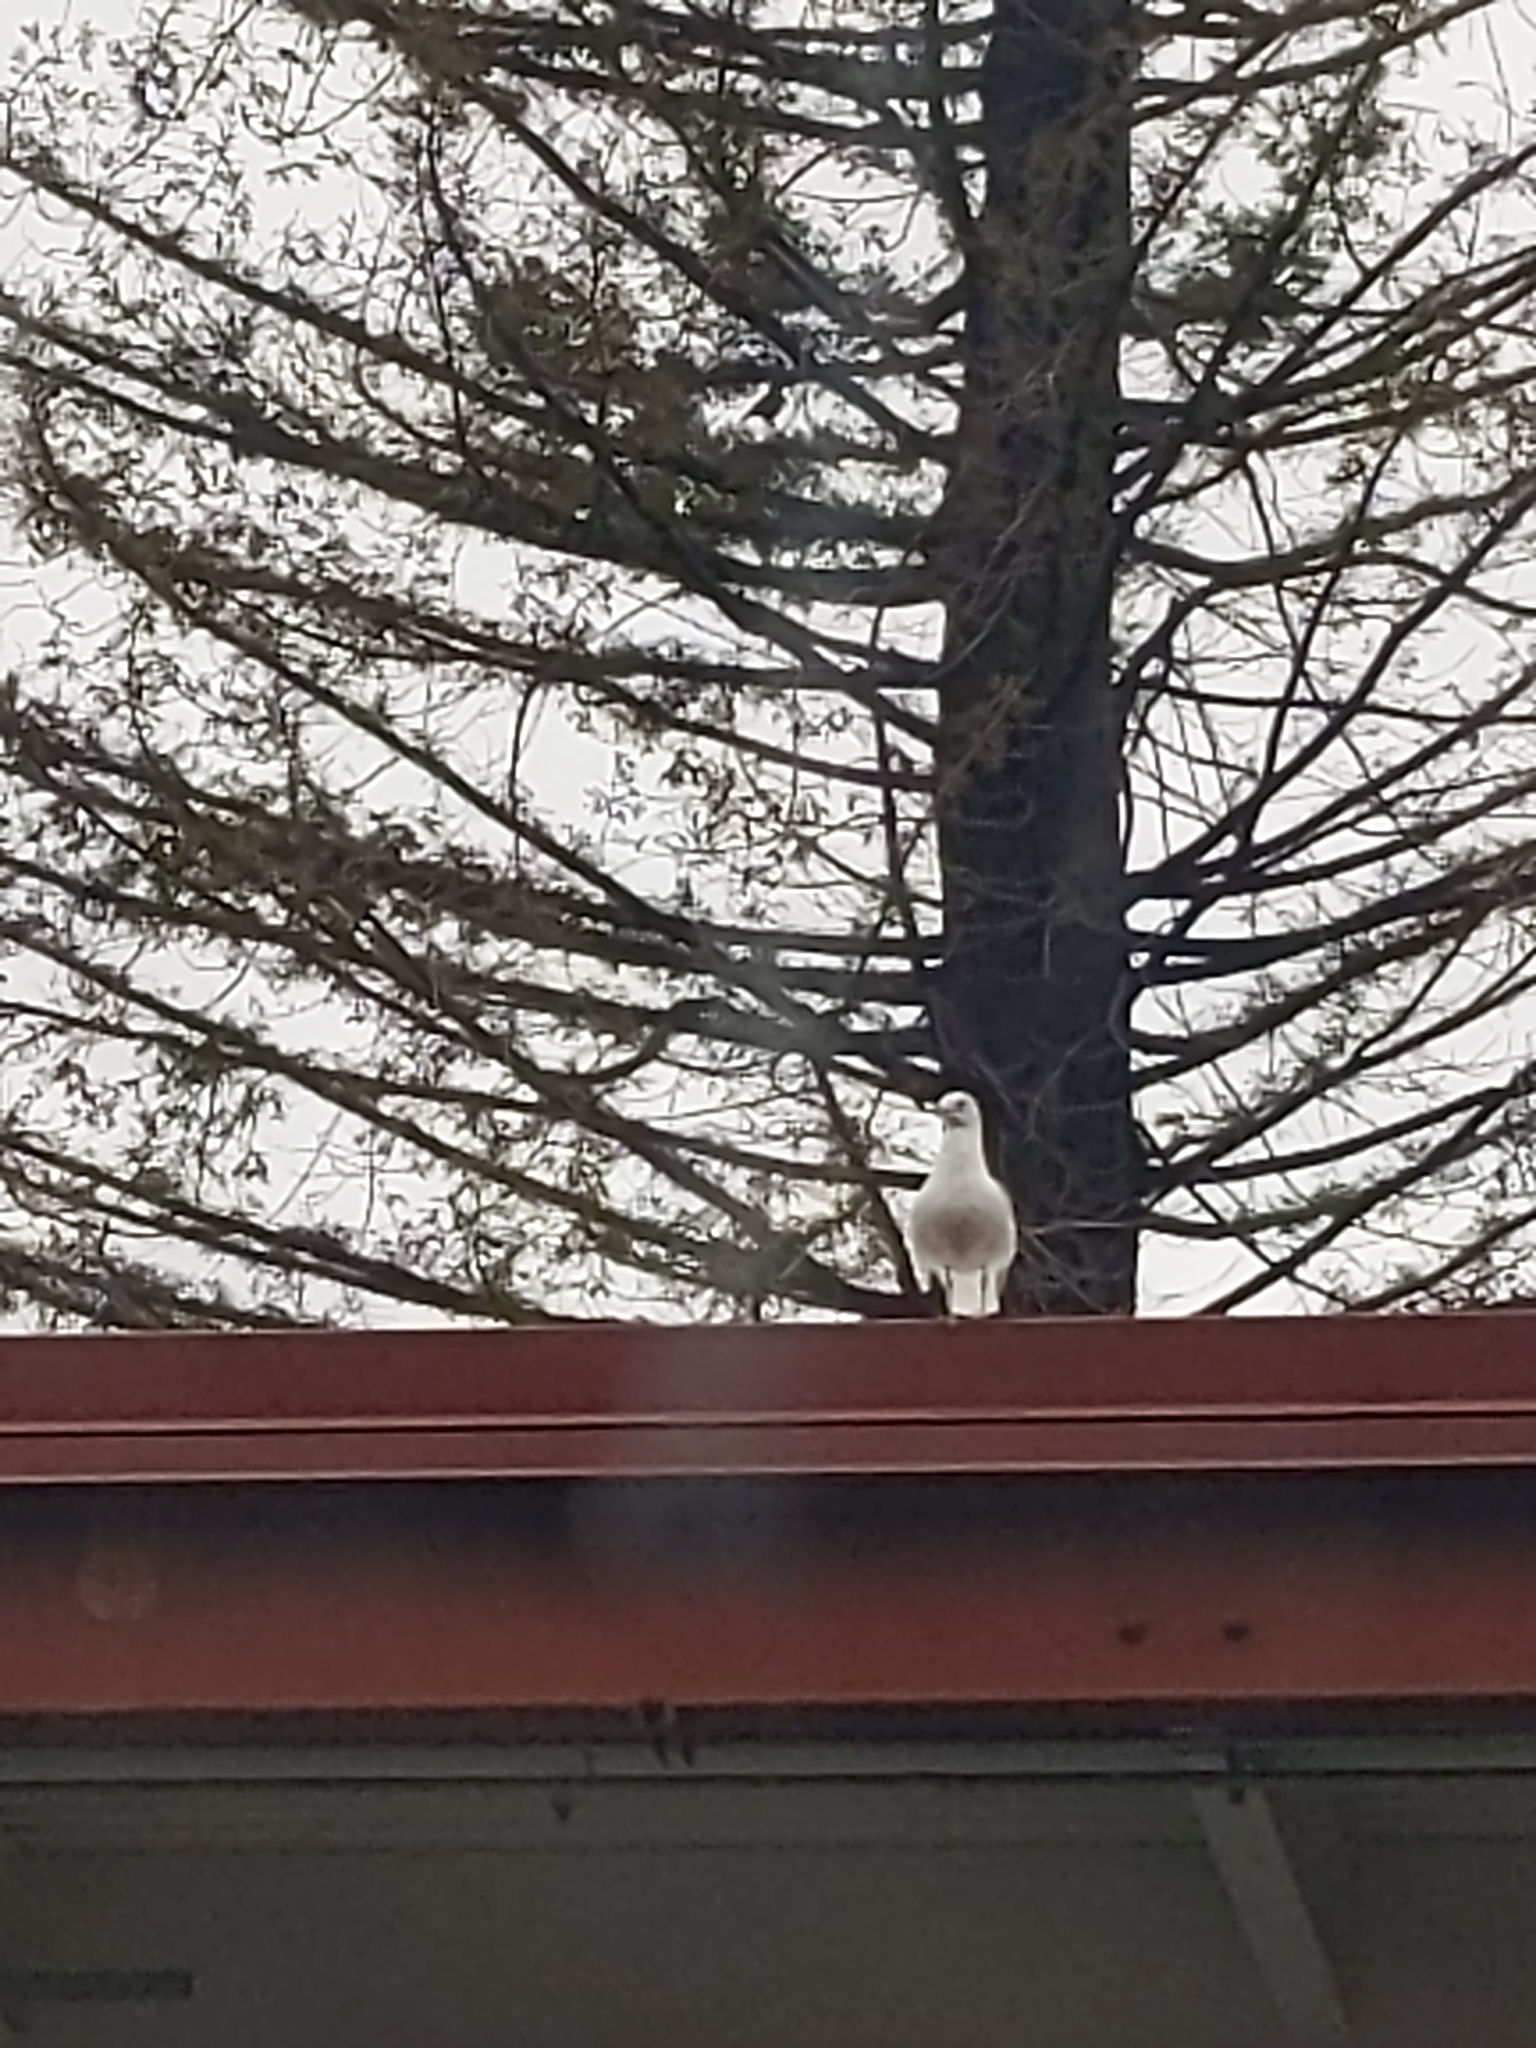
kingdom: Animalia
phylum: Chordata
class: Aves
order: Charadriiformes
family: Laridae
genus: Larus
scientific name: Larus
